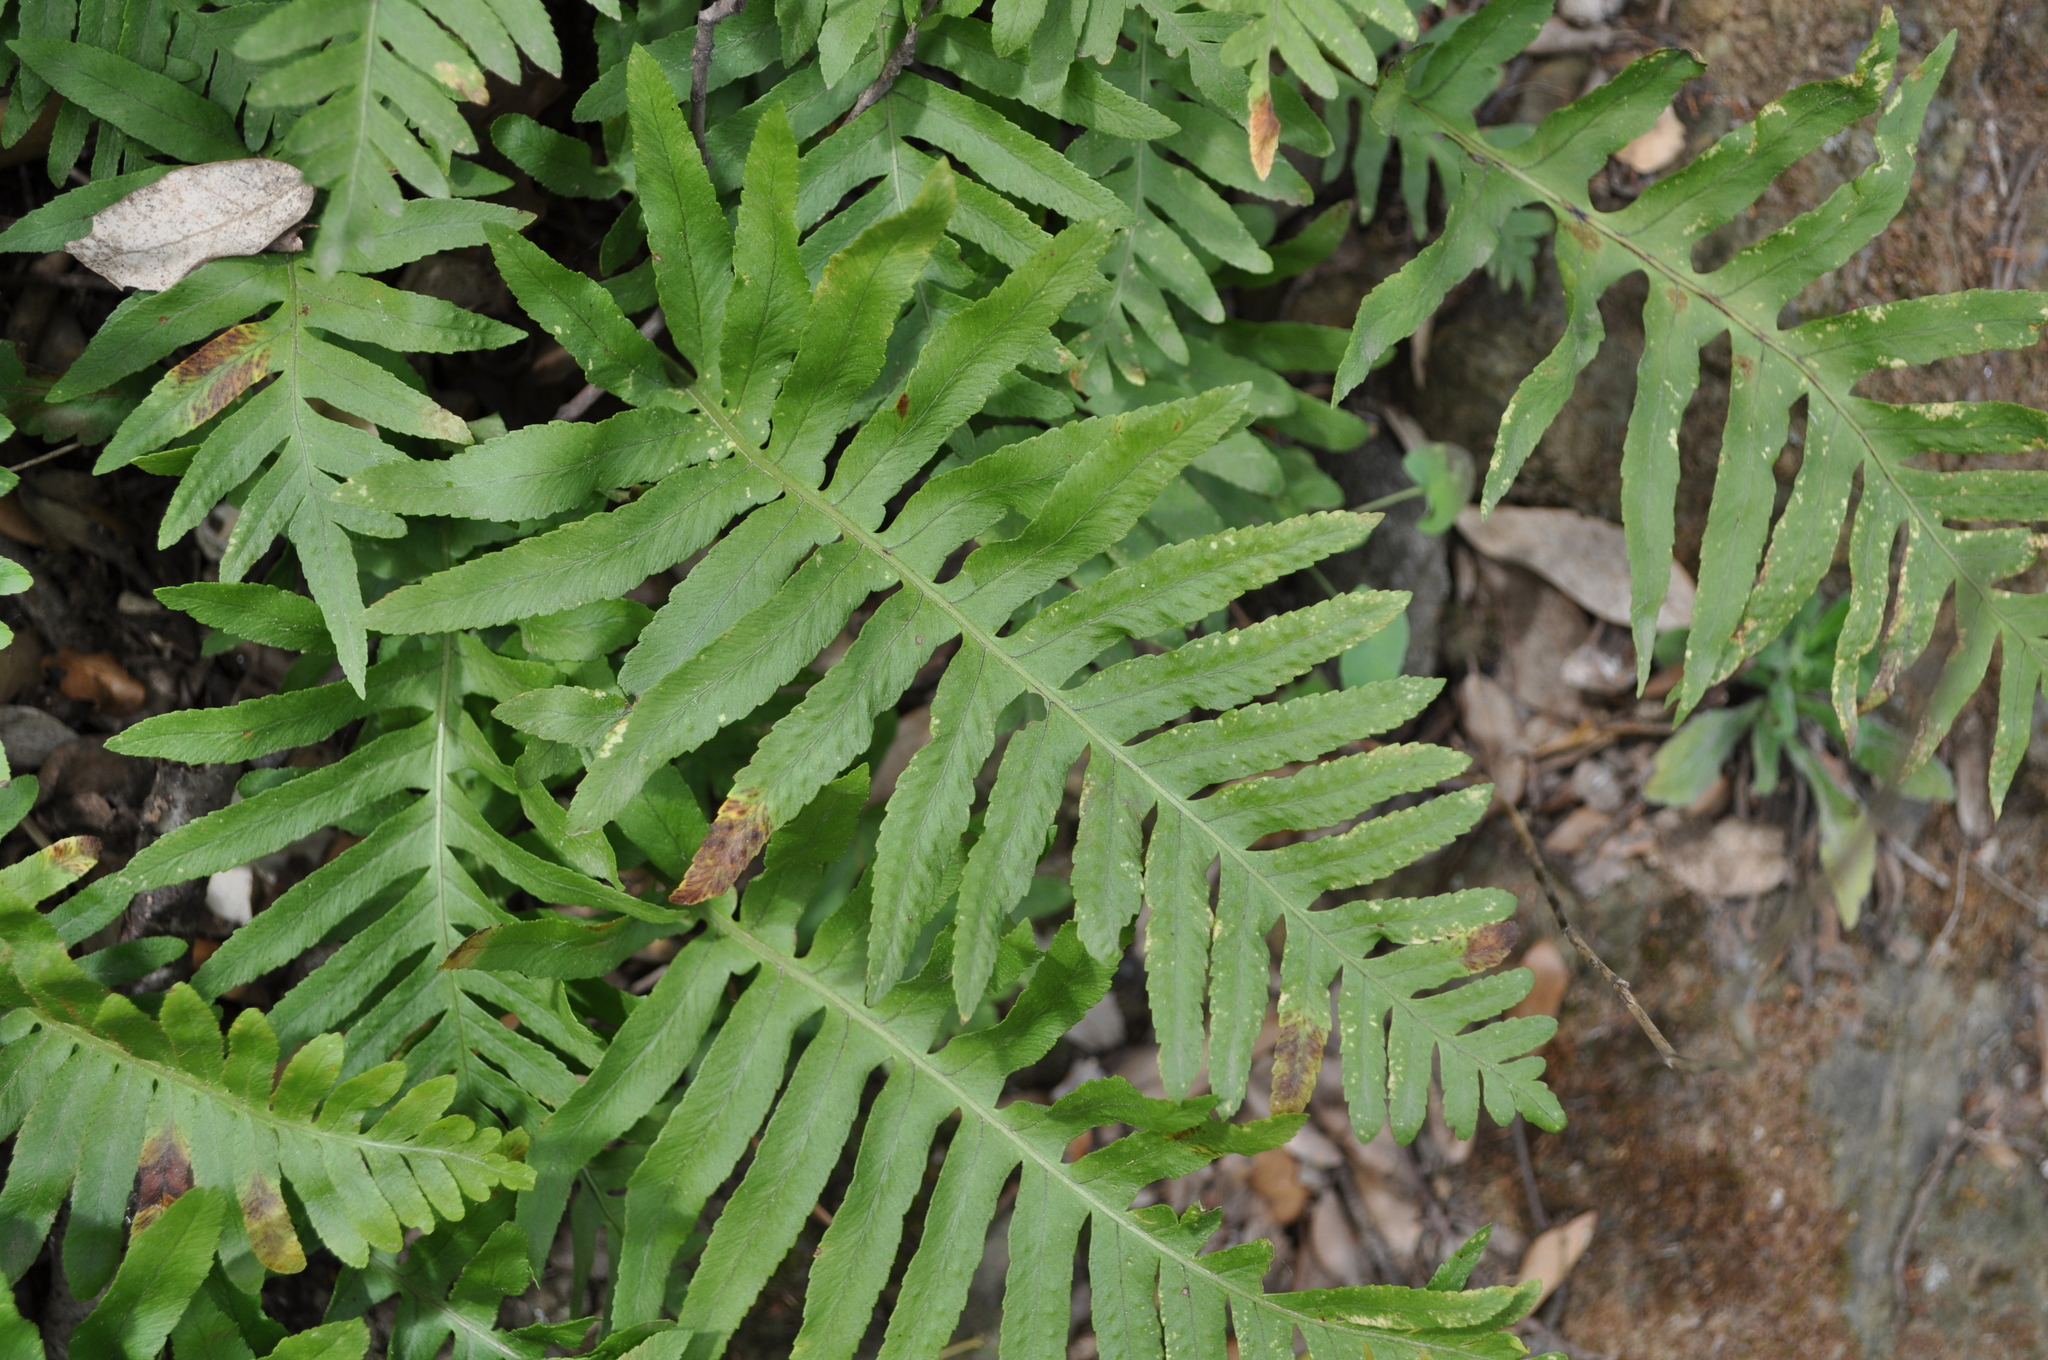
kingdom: Plantae
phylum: Tracheophyta
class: Polypodiopsida
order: Polypodiales
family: Polypodiaceae
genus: Polypodium
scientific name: Polypodium cambricum
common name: Southern polypody
